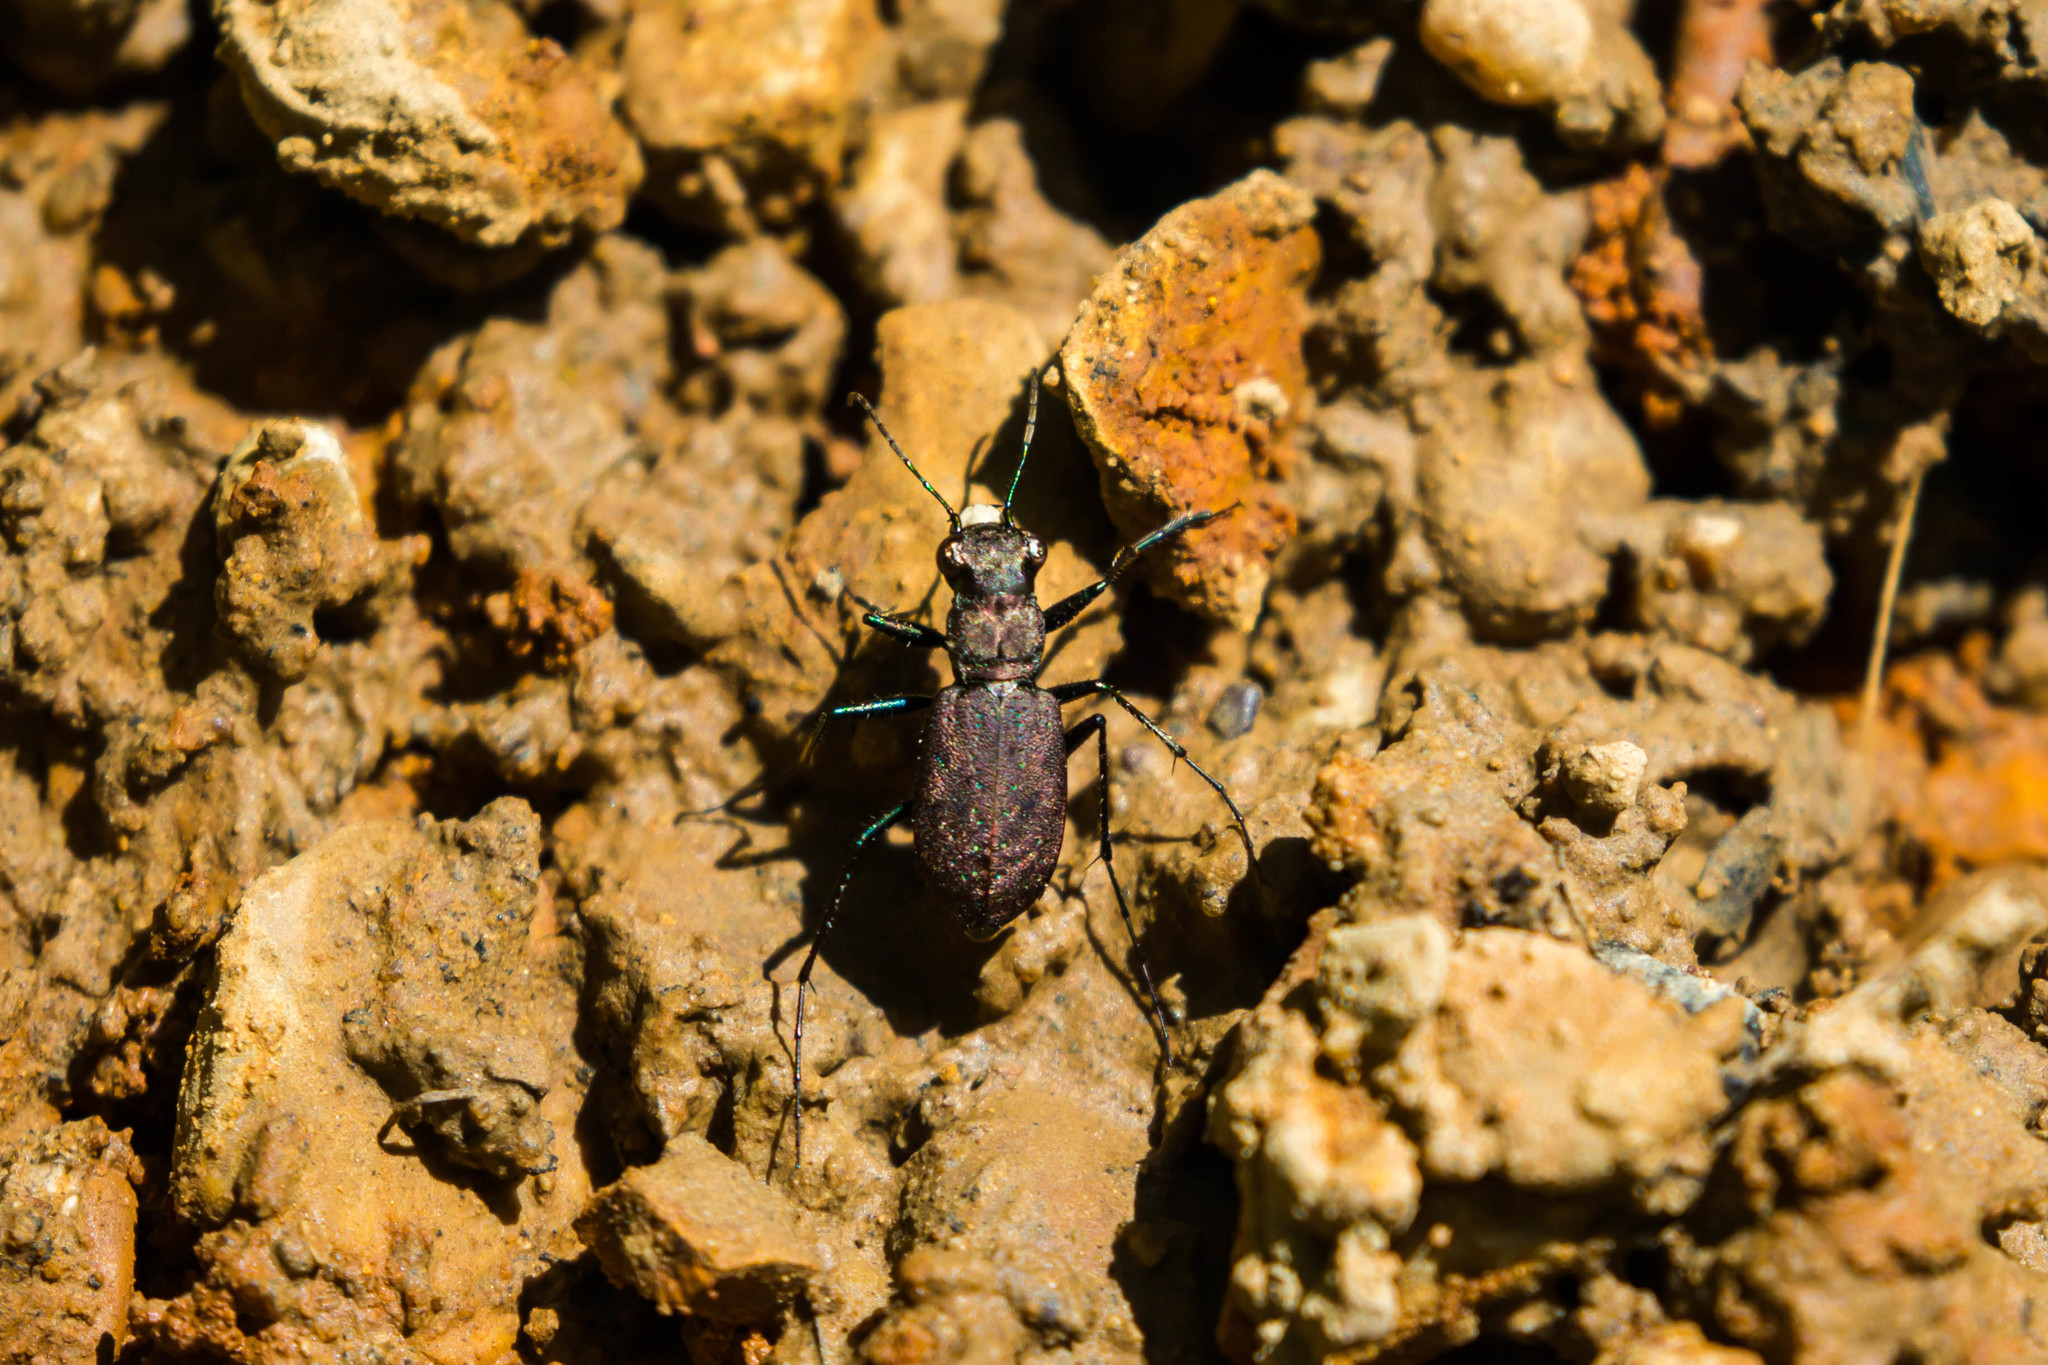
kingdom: Animalia
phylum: Arthropoda
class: Insecta
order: Coleoptera
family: Carabidae
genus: Cylindera
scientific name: Cylindera unipunctata
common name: One-spotted tiger beetle
